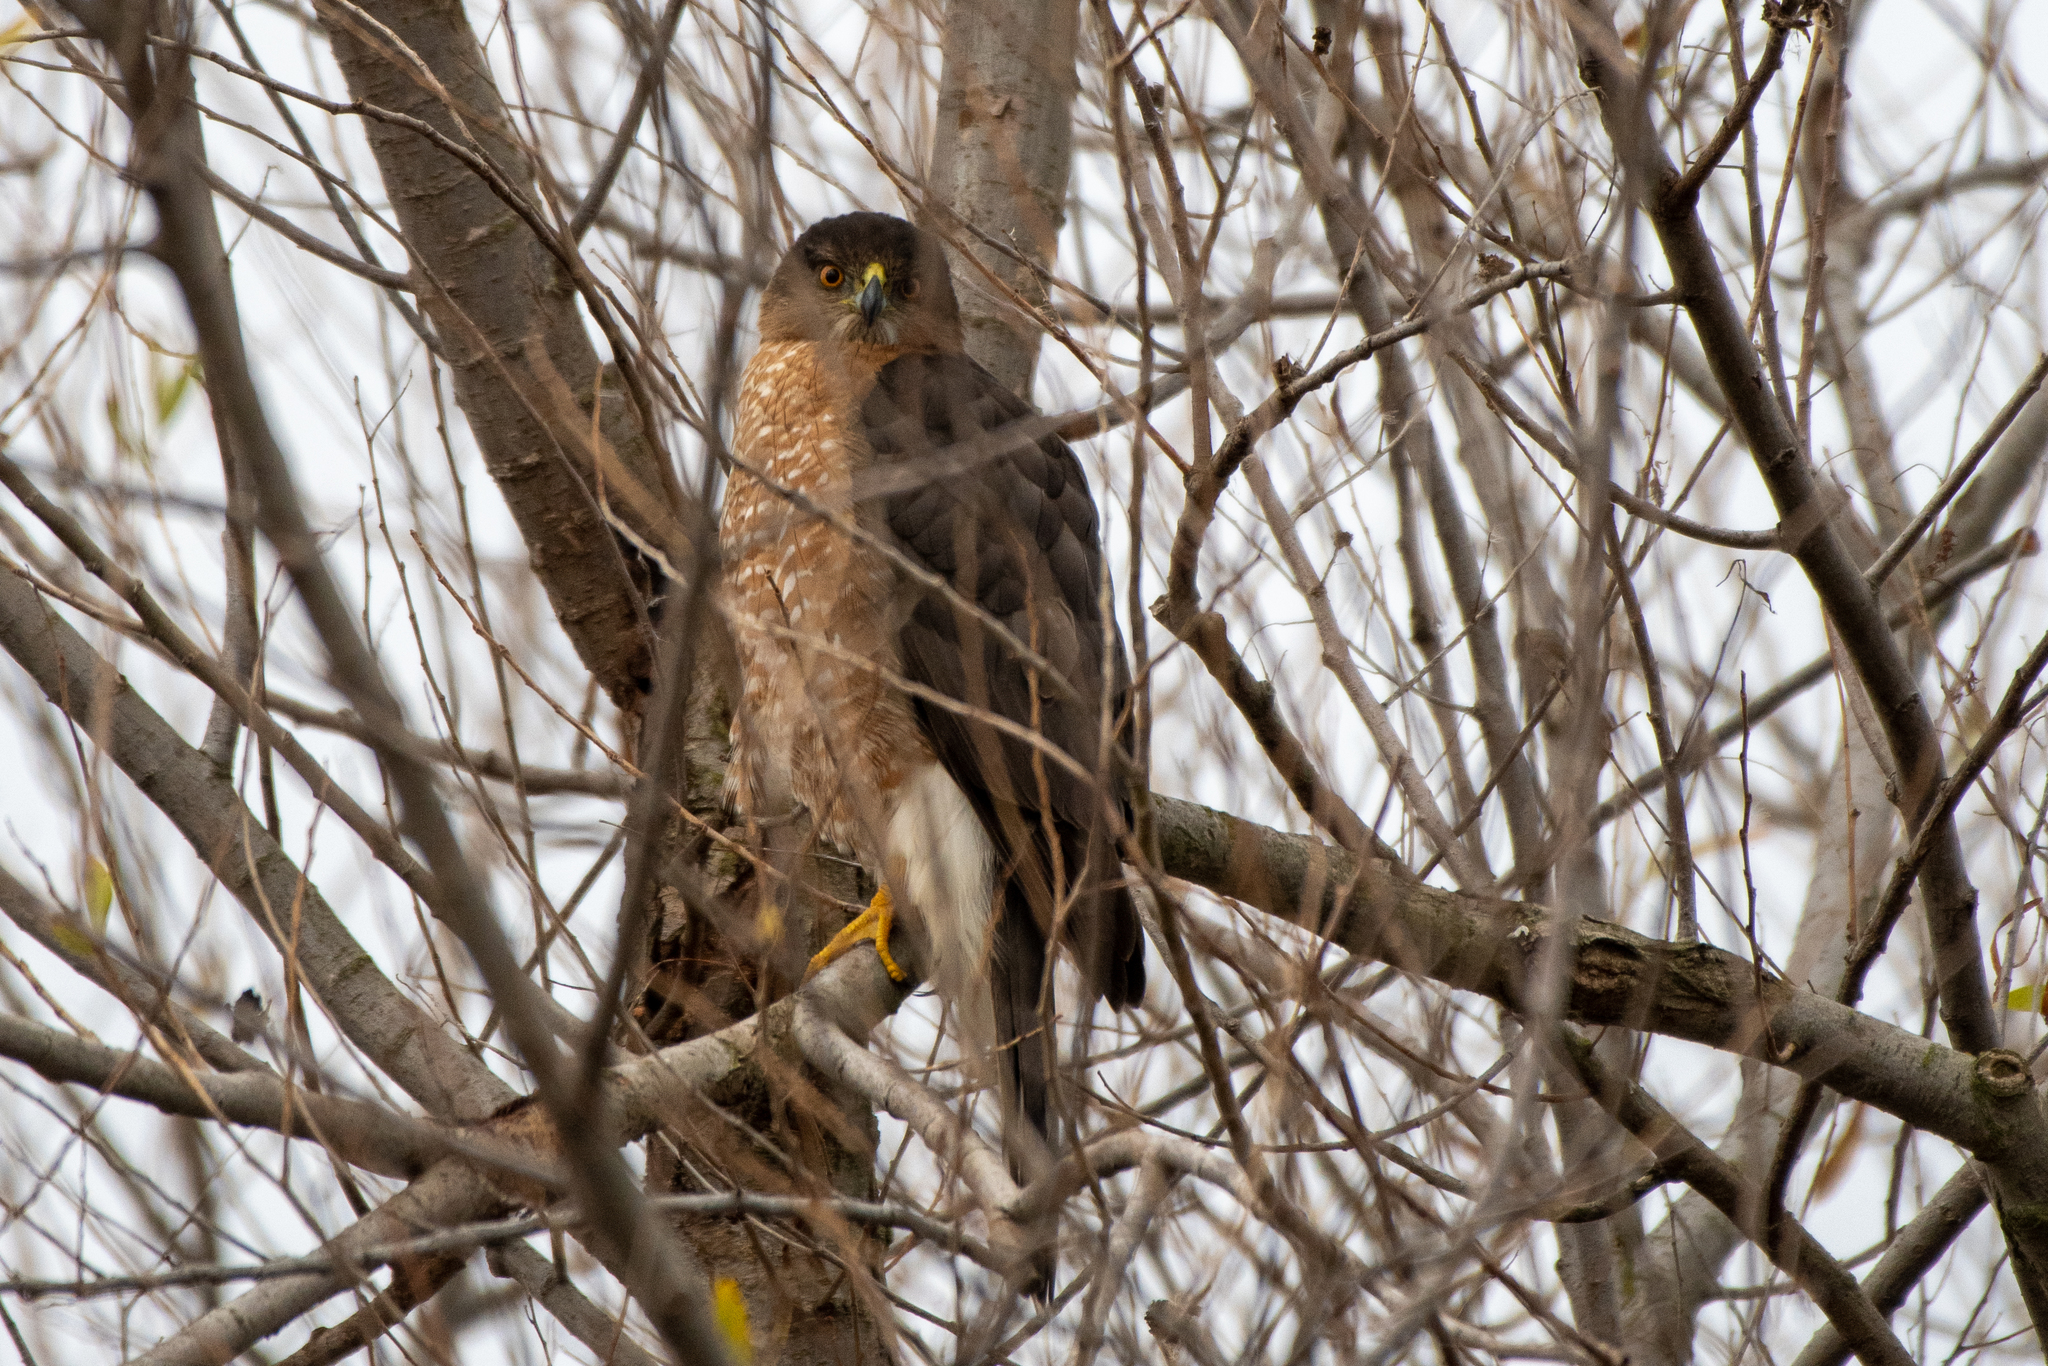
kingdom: Animalia
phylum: Chordata
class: Aves
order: Accipitriformes
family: Accipitridae
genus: Accipiter
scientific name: Accipiter cooperii
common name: Cooper's hawk
